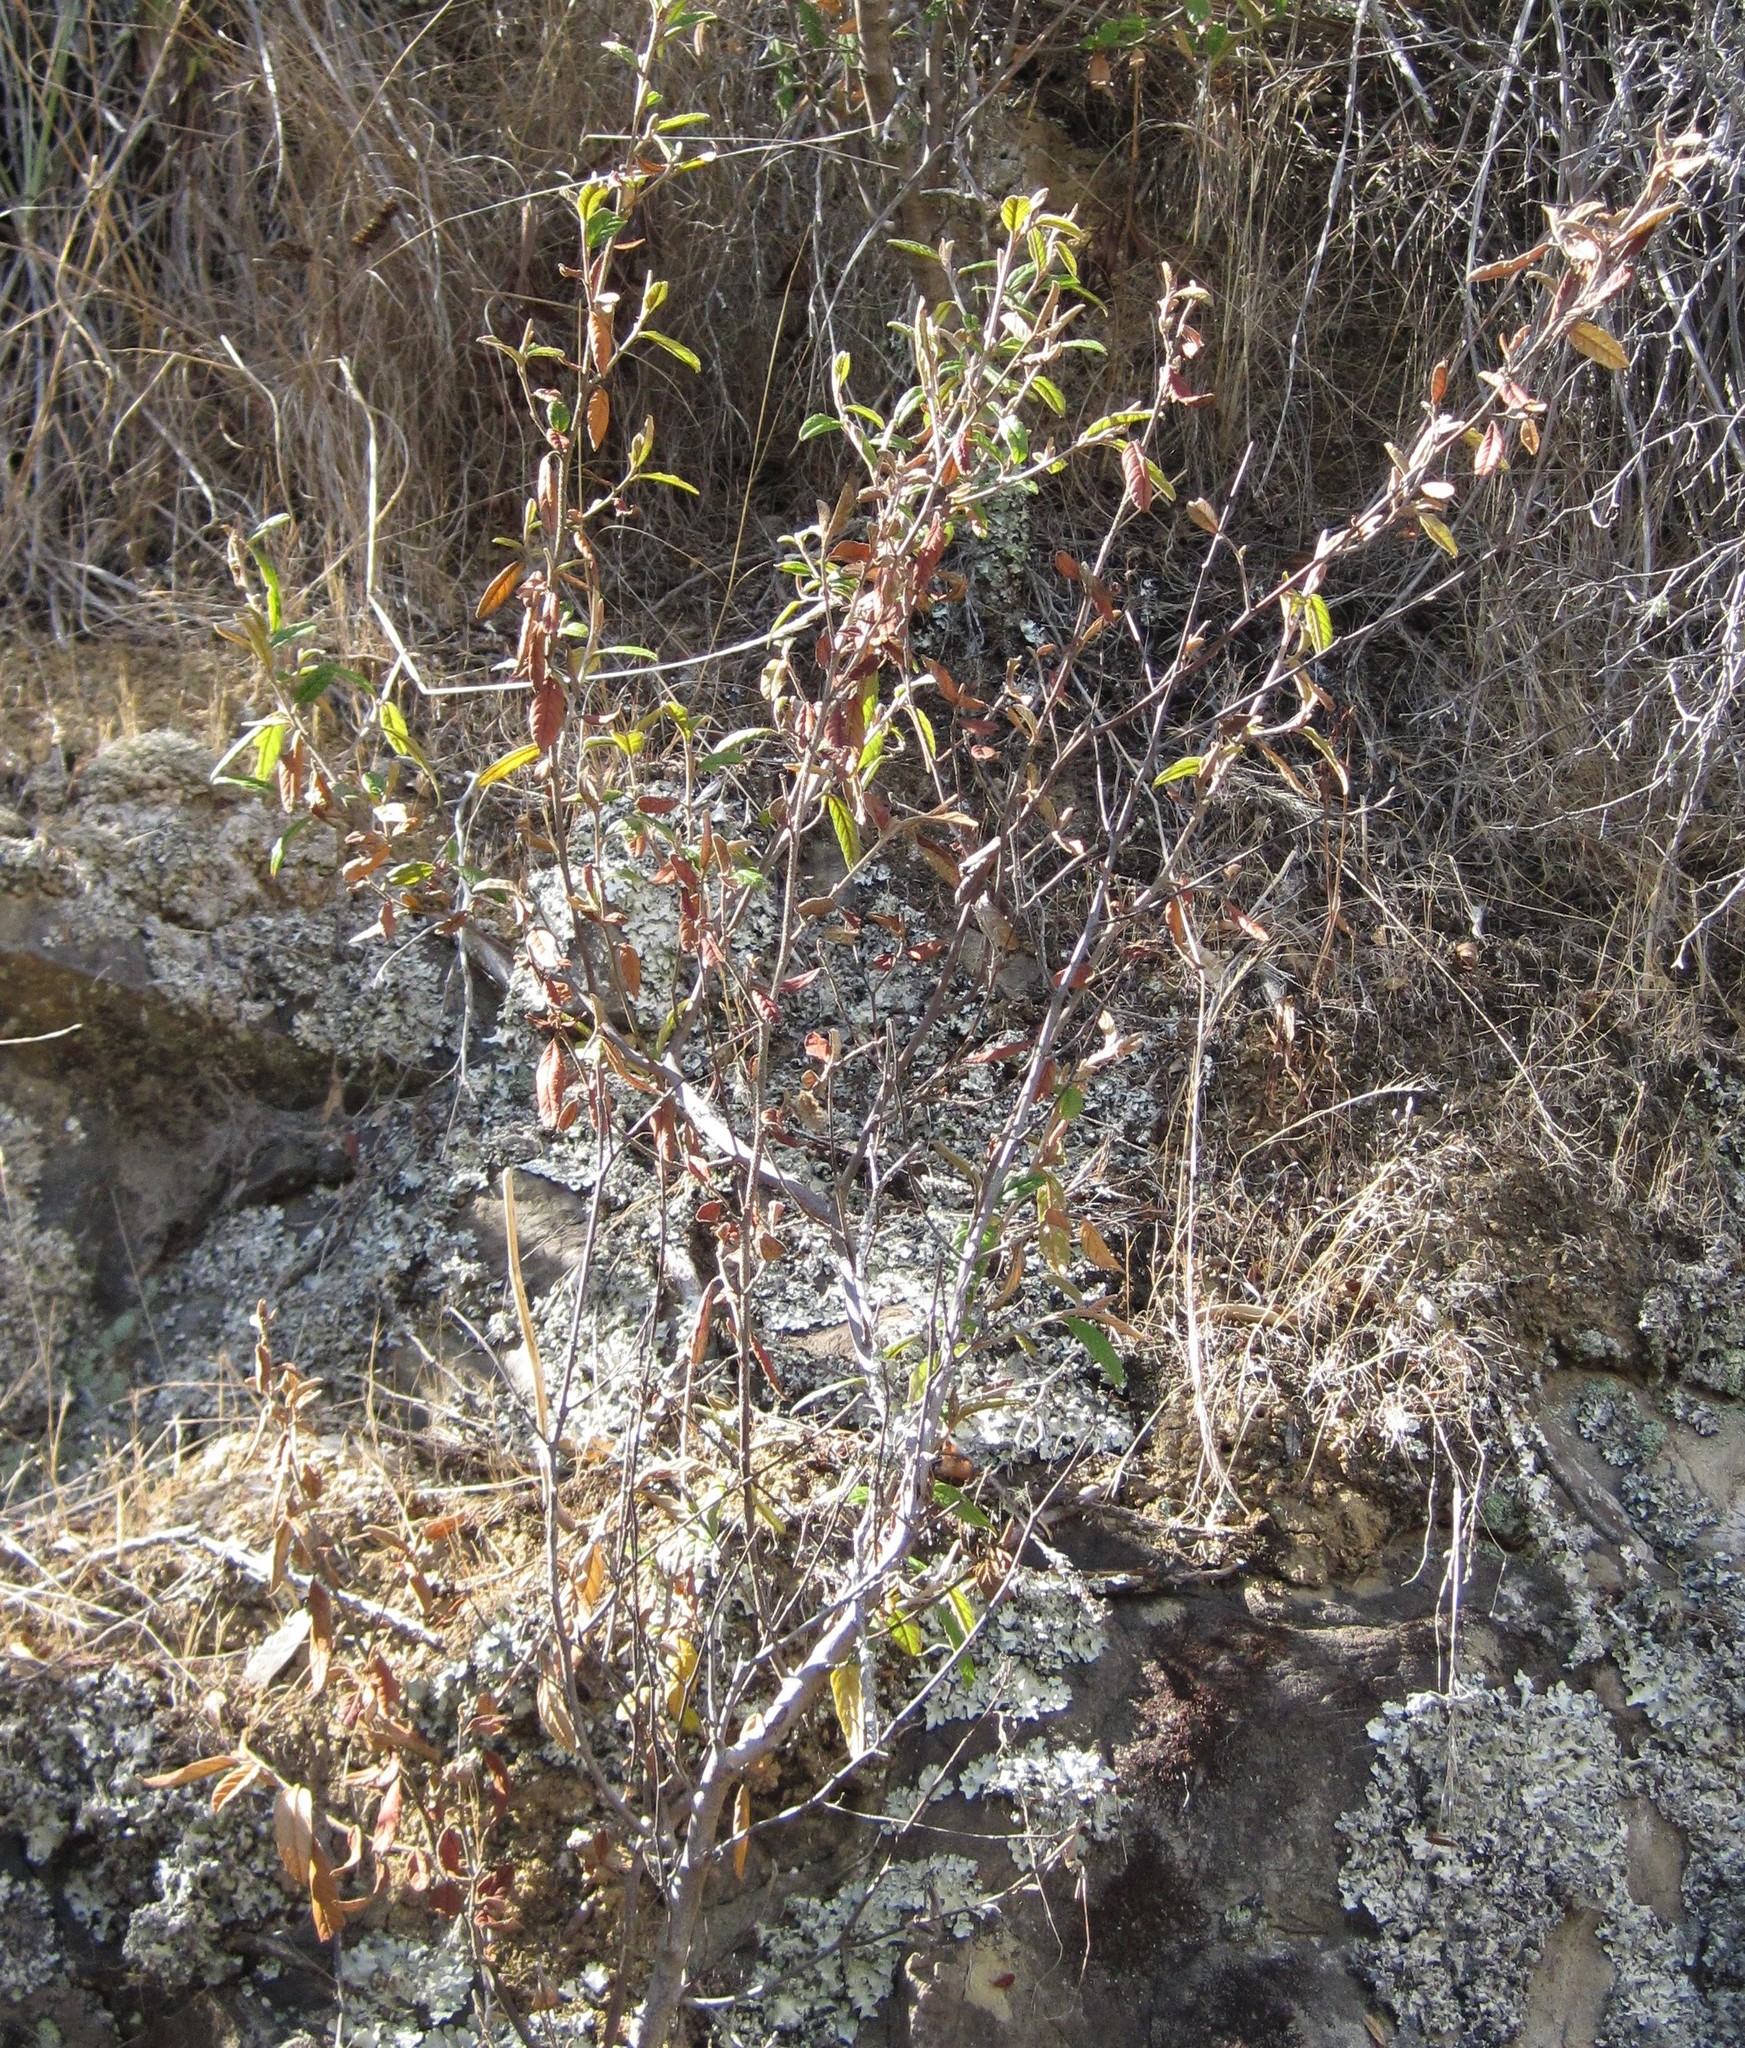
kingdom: Plantae
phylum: Tracheophyta
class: Magnoliopsida
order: Rosales
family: Rhamnaceae
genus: Pomaderris
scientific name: Pomaderris rugosa
